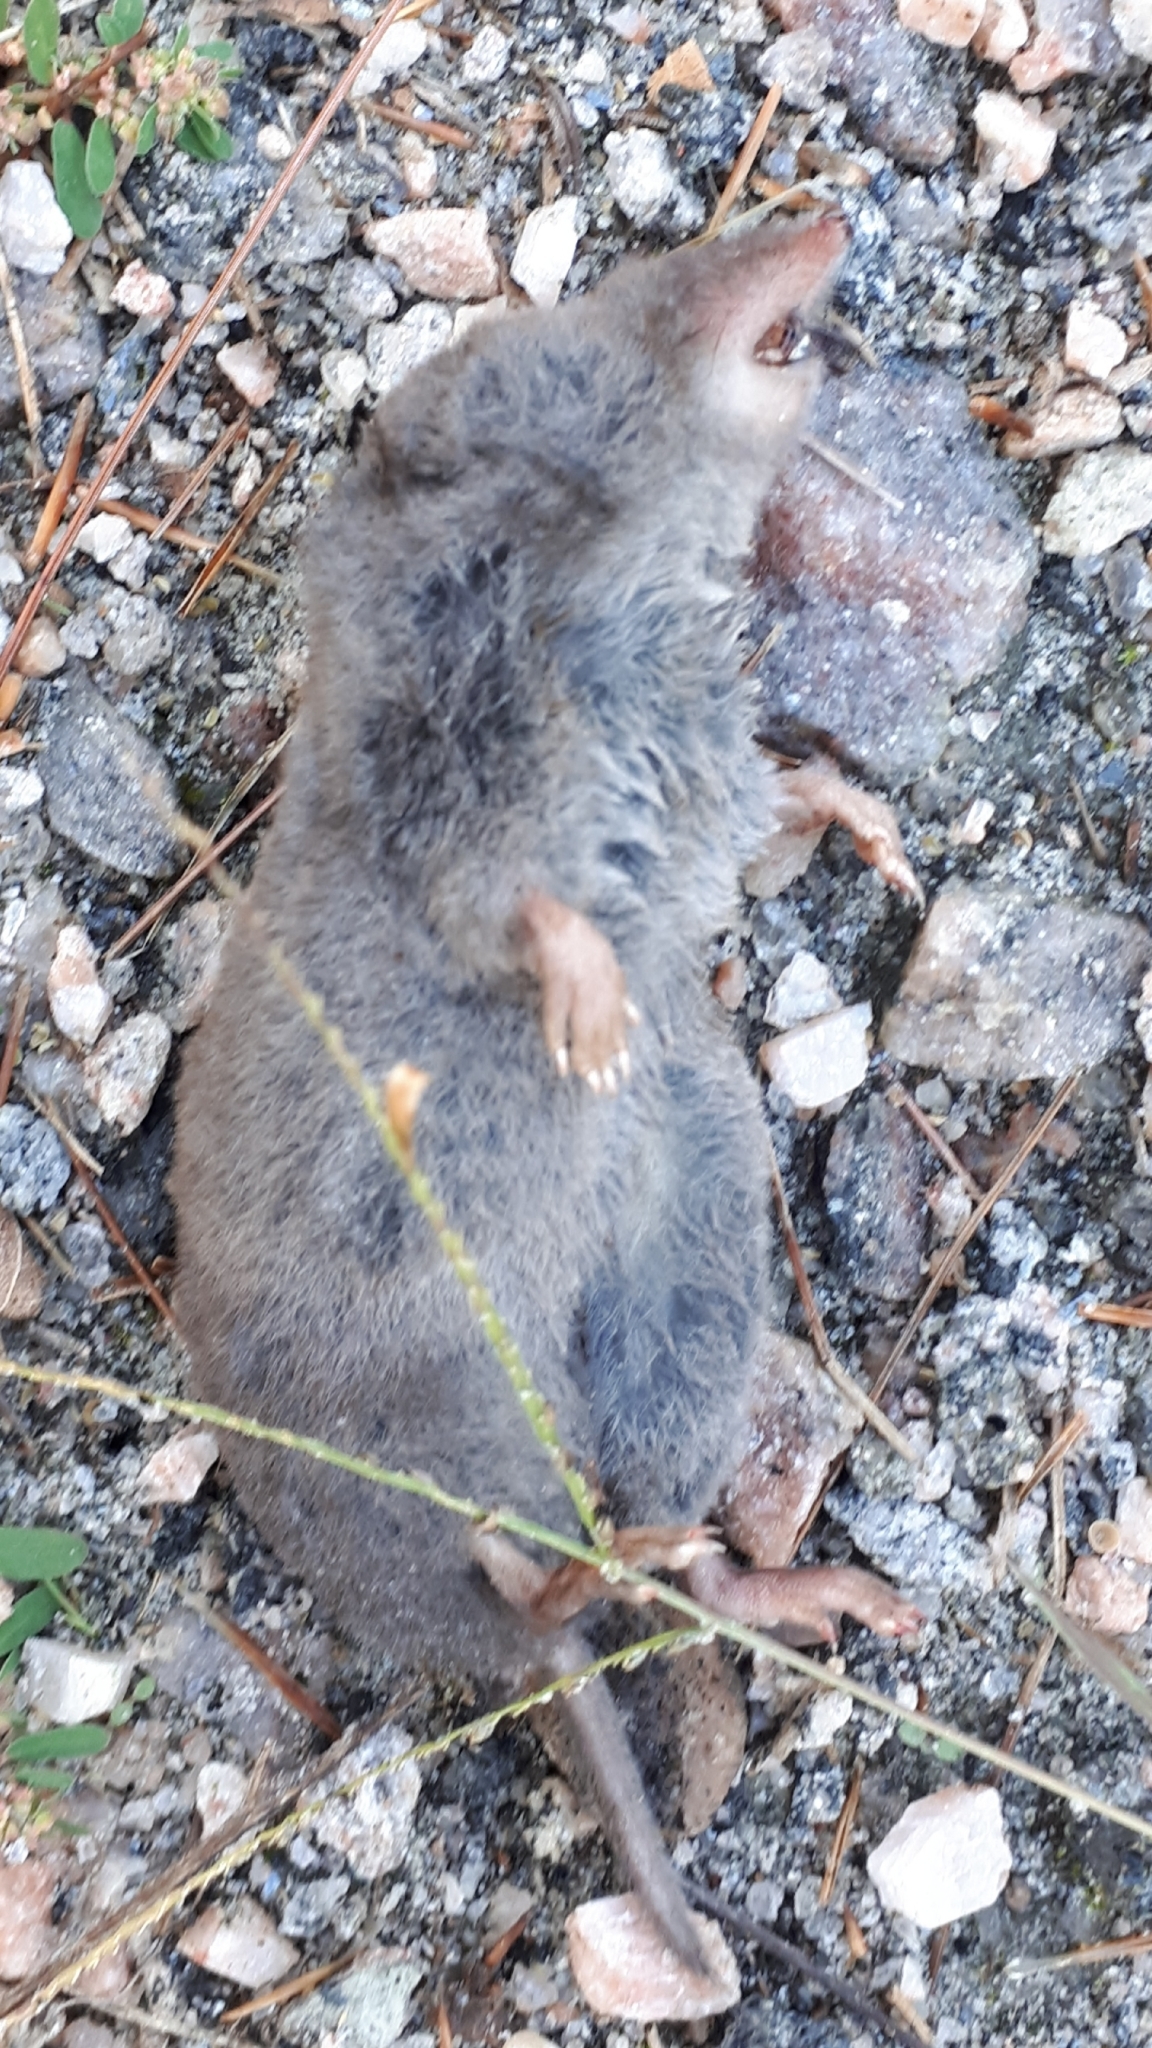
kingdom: Animalia
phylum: Chordata
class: Mammalia
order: Soricomorpha
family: Soricidae
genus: Blarina
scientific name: Blarina brevicauda
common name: Northern short-tailed shrew
